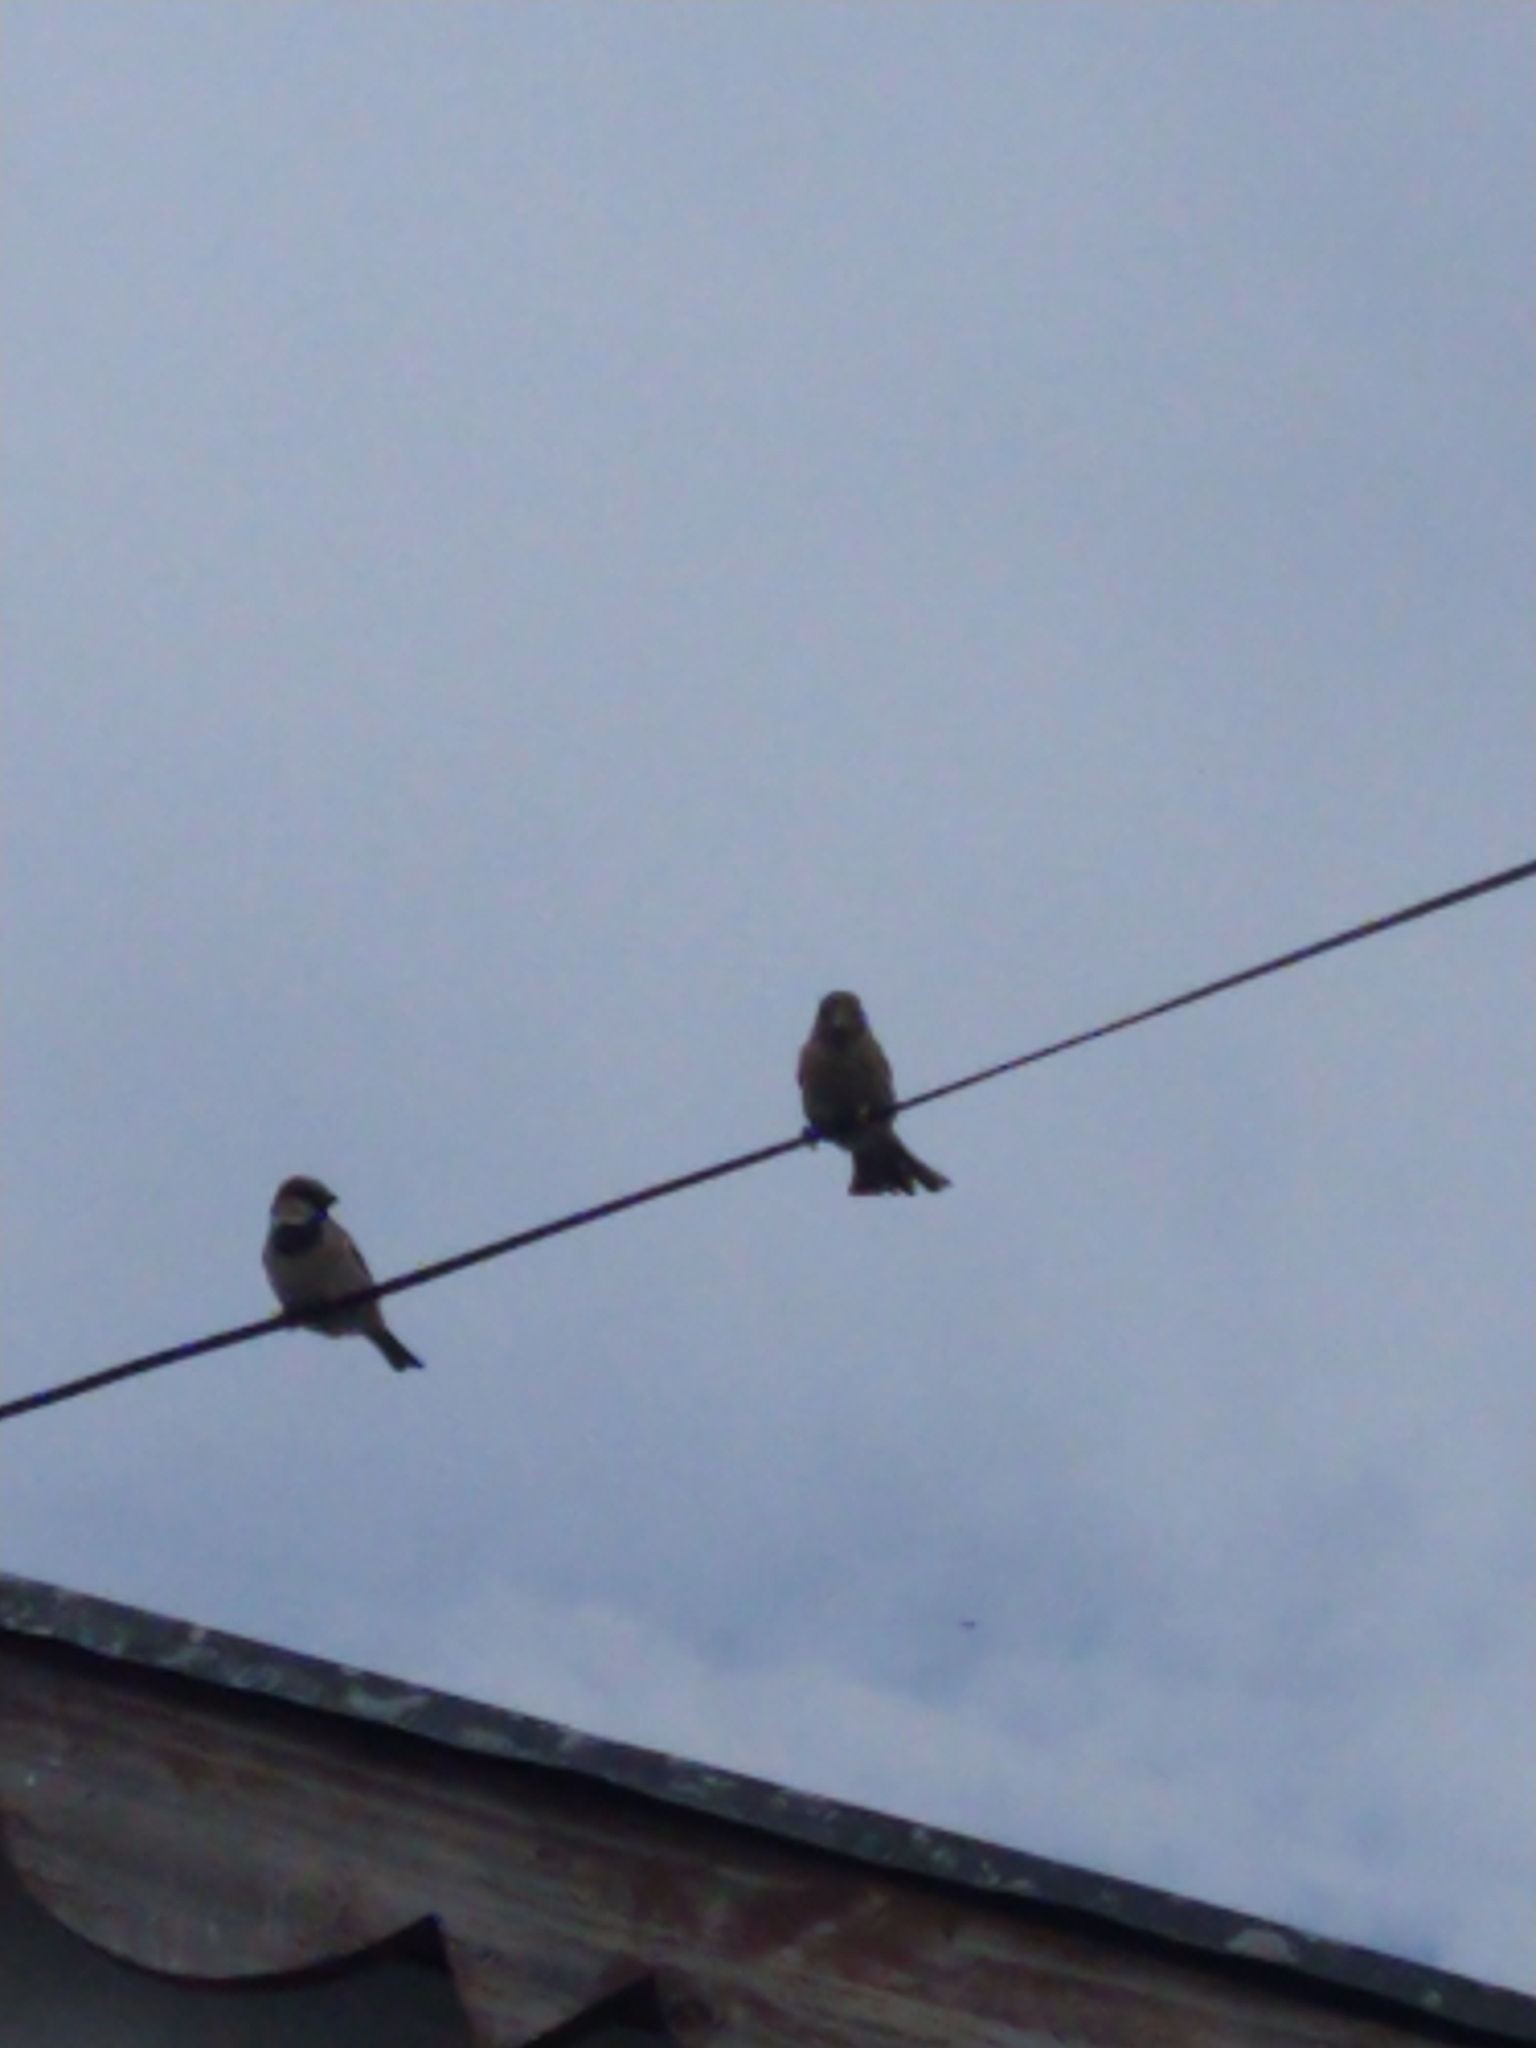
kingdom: Animalia
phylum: Chordata
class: Aves
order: Passeriformes
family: Passeridae
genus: Passer
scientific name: Passer domesticus
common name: House sparrow
